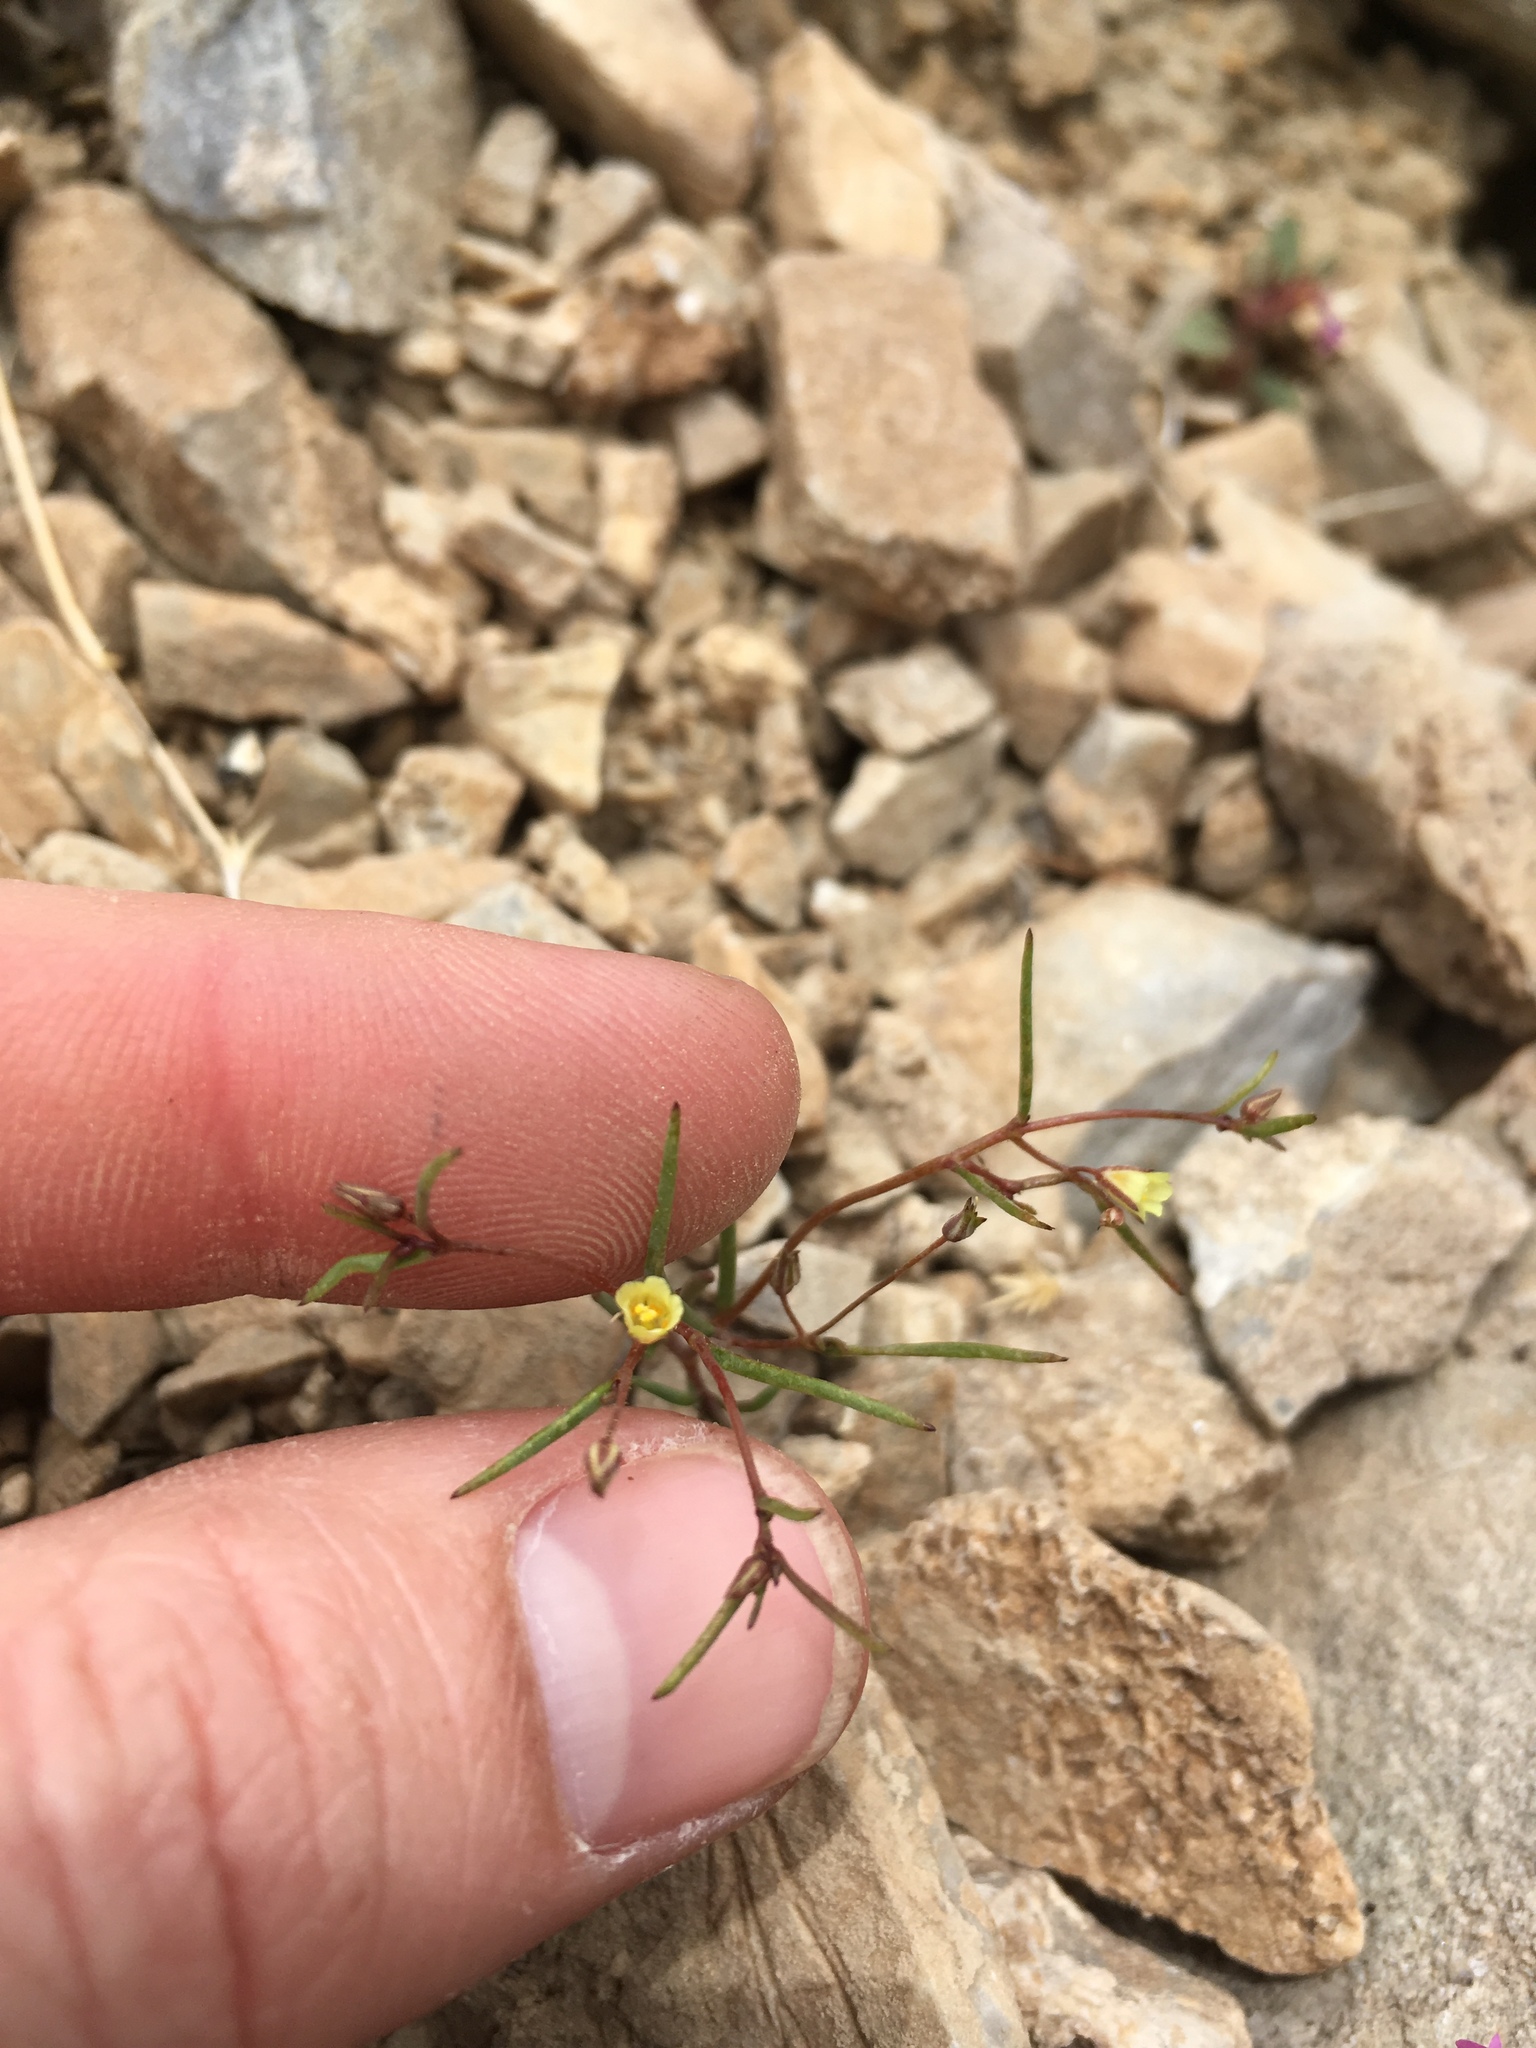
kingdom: Plantae
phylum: Tracheophyta
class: Magnoliopsida
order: Ericales
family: Polemoniaceae
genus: Linanthus
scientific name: Linanthus filiformis
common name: Yellow gilia
